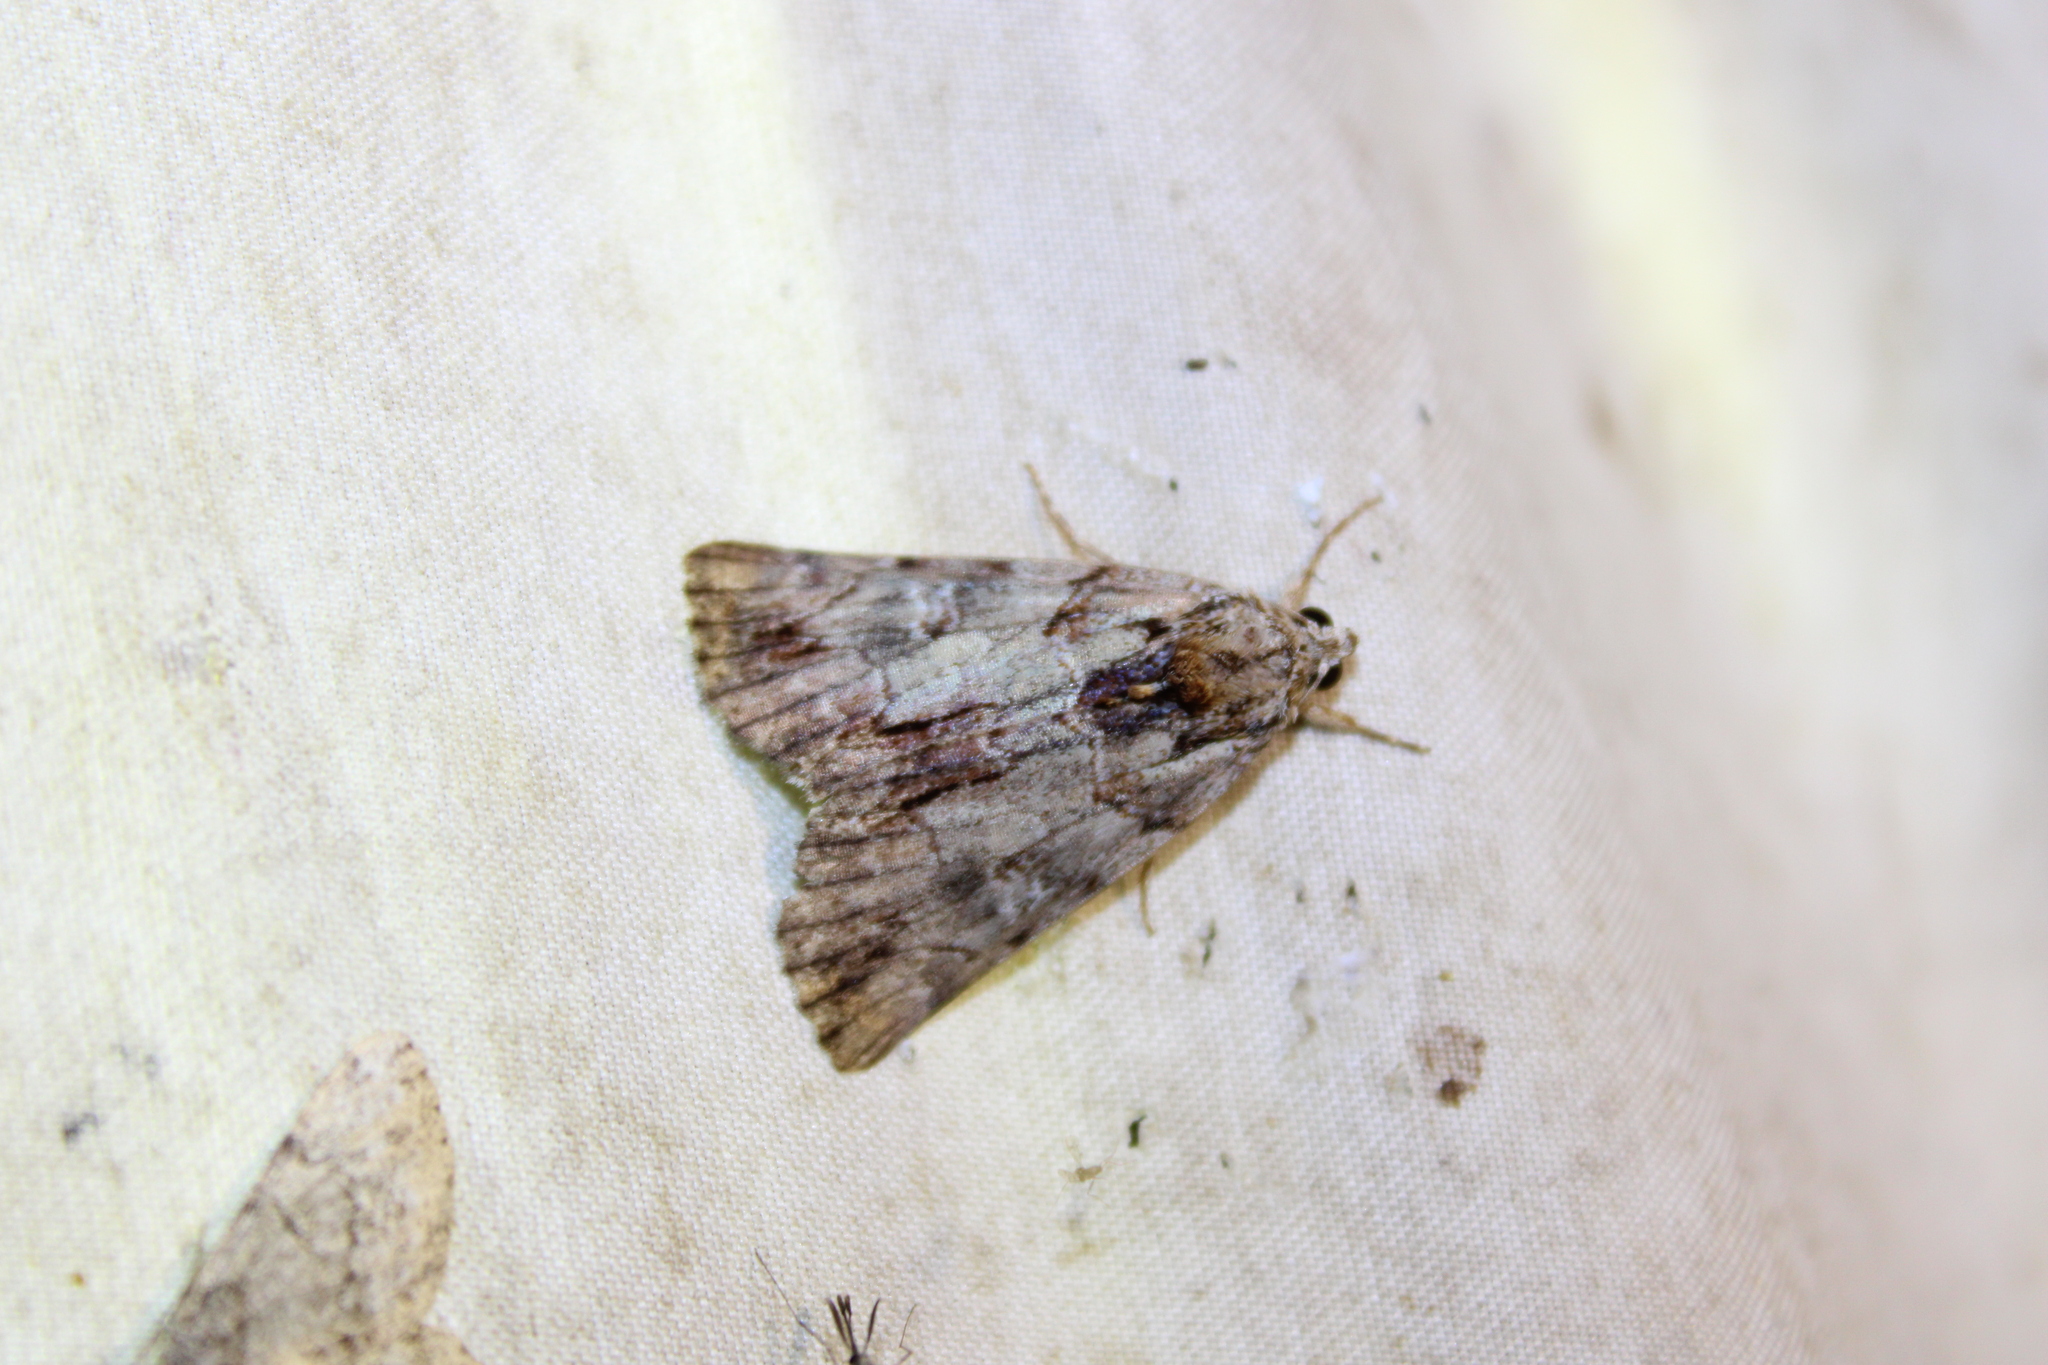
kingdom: Animalia
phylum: Arthropoda
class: Insecta
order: Lepidoptera
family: Erebidae
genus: Catocala
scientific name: Catocala praeclara
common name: Praeclara underwing
